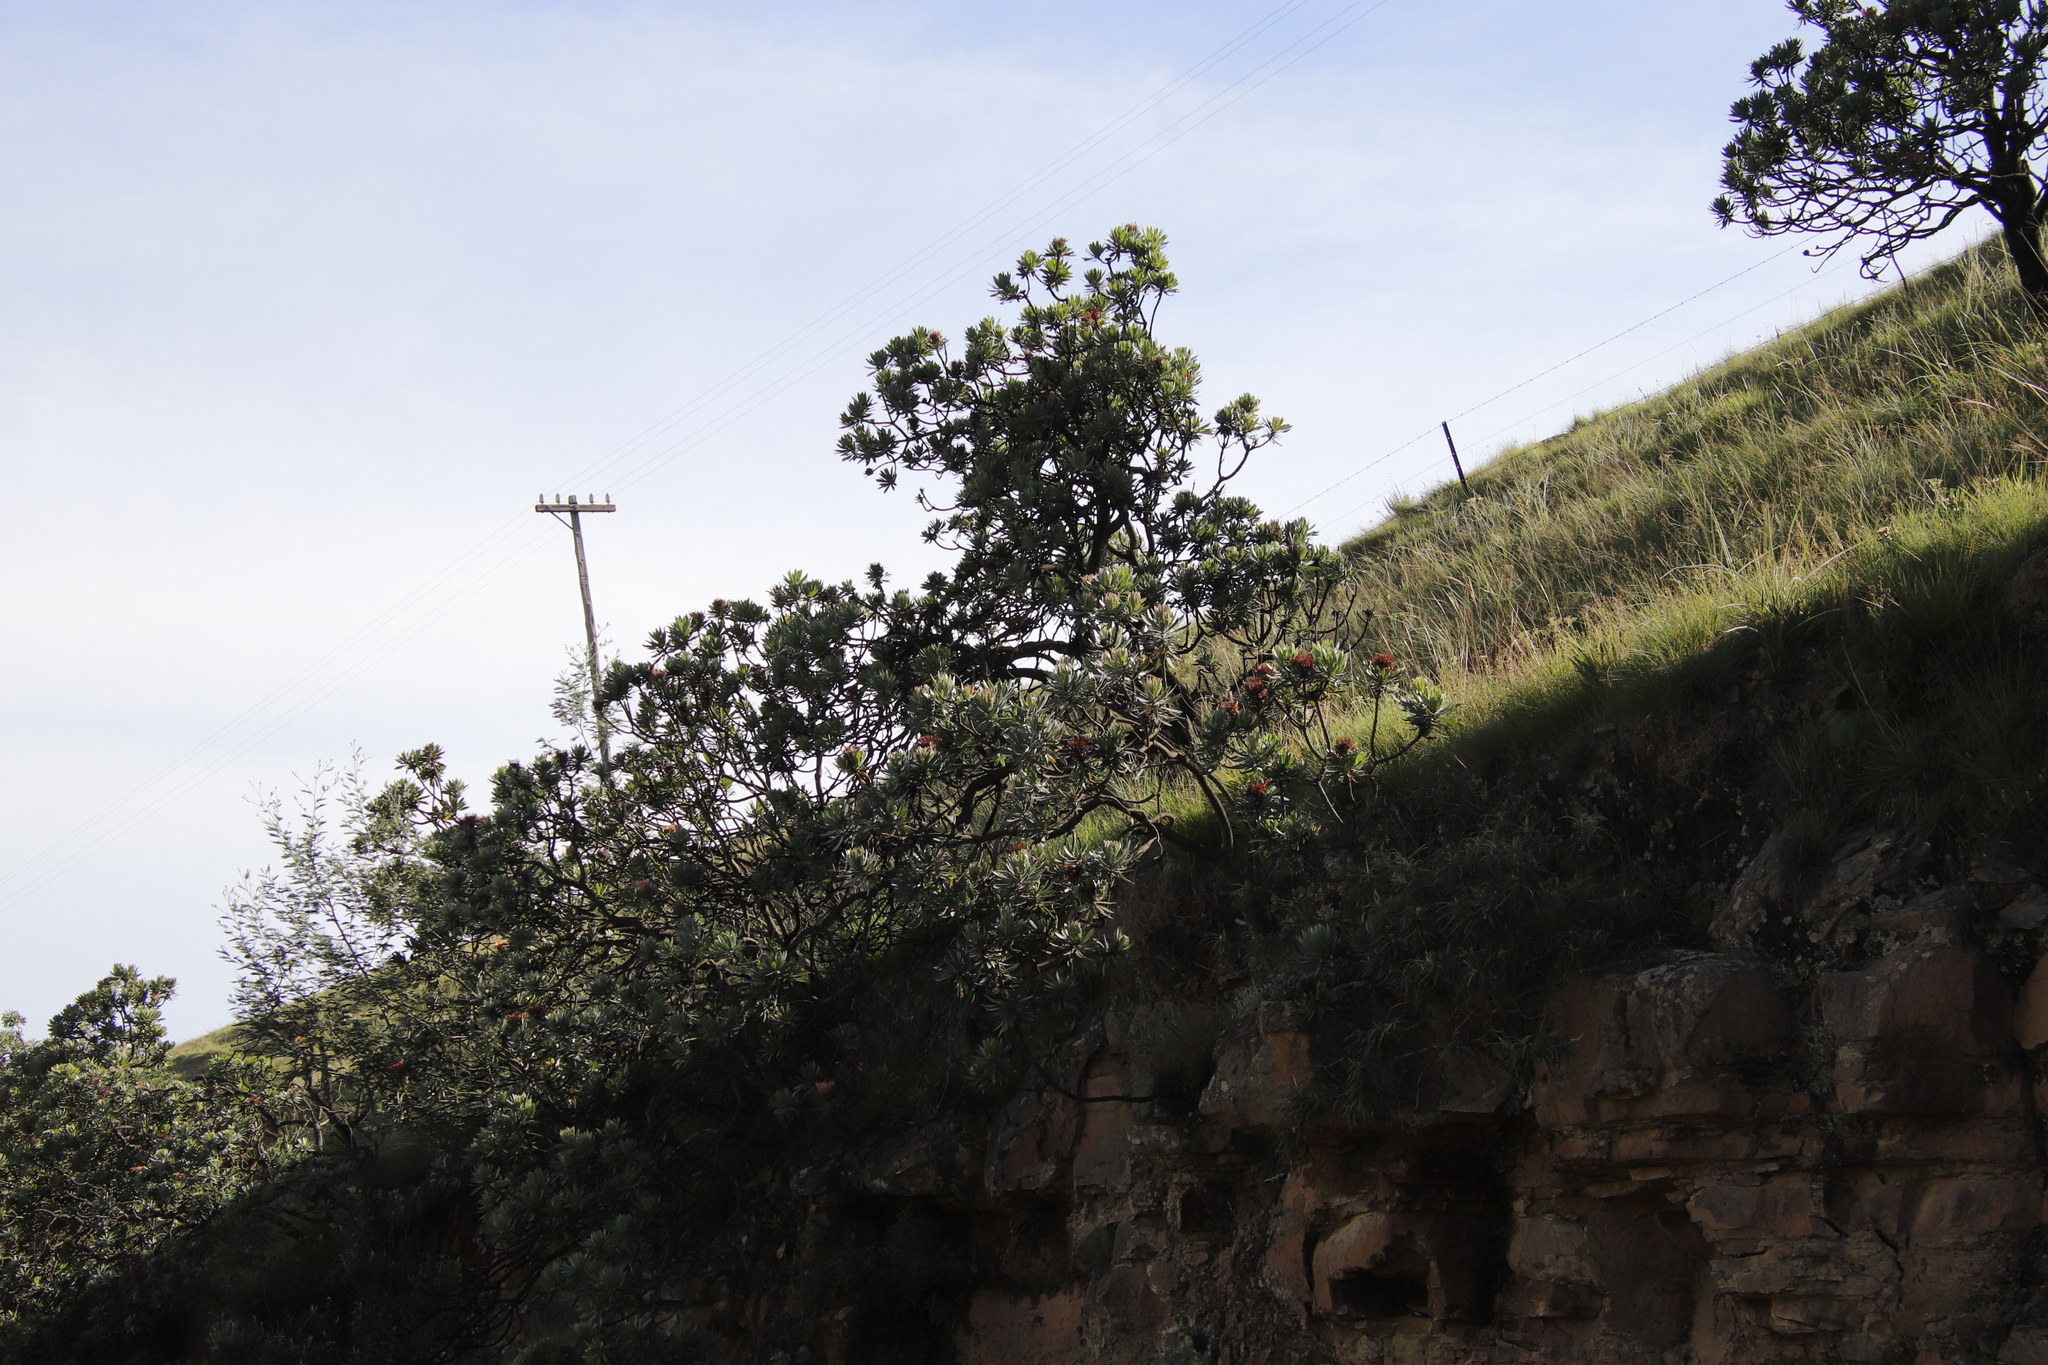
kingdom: Plantae
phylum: Tracheophyta
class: Magnoliopsida
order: Proteales
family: Proteaceae
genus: Protea
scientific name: Protea roupelliae
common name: Silver sugarbush
